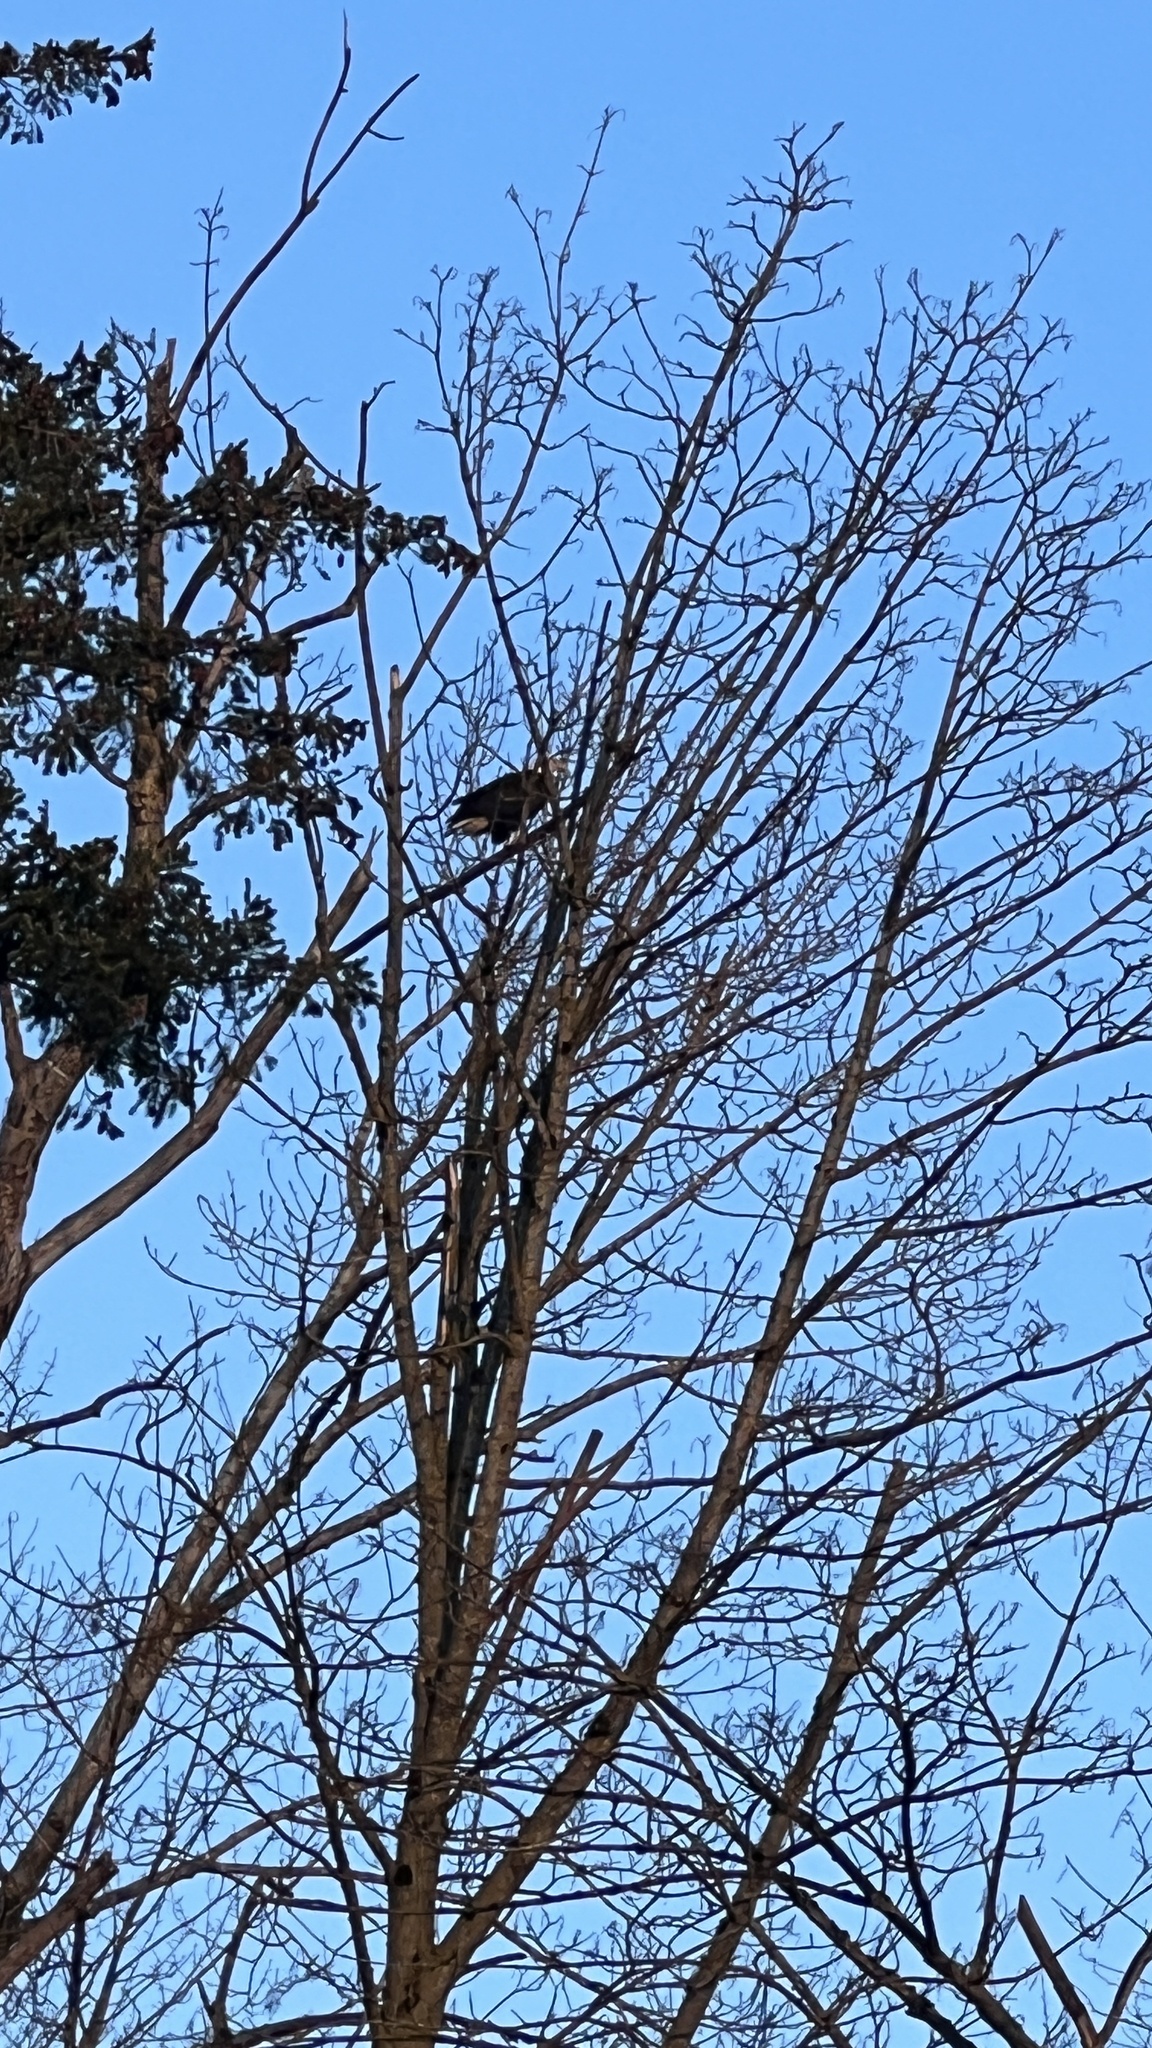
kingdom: Animalia
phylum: Chordata
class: Aves
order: Accipitriformes
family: Accipitridae
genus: Haliaeetus
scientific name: Haliaeetus leucocephalus
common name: Bald eagle
